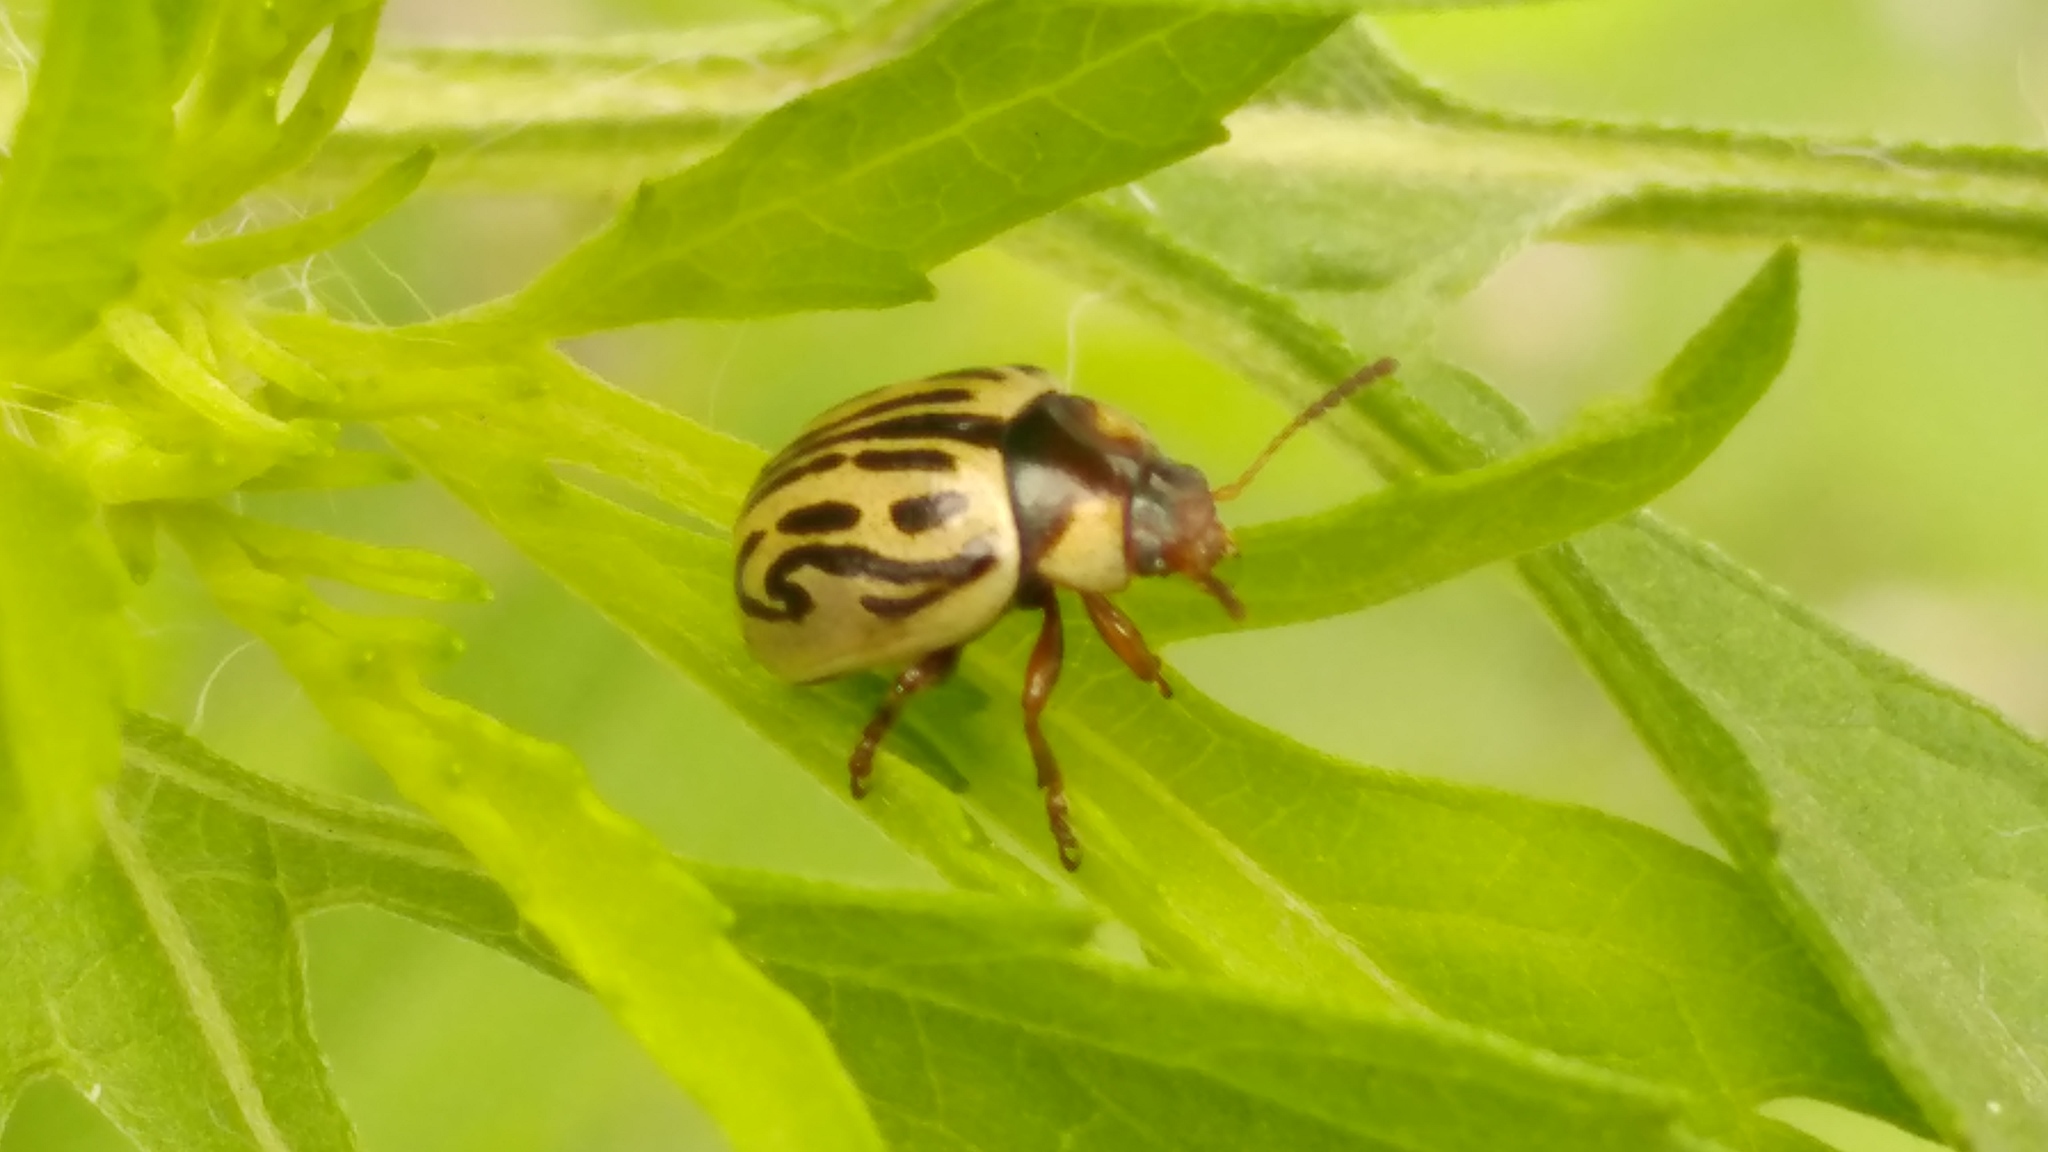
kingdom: Animalia
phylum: Arthropoda
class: Insecta
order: Coleoptera
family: Chrysomelidae
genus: Calligrapha
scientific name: Calligrapha
